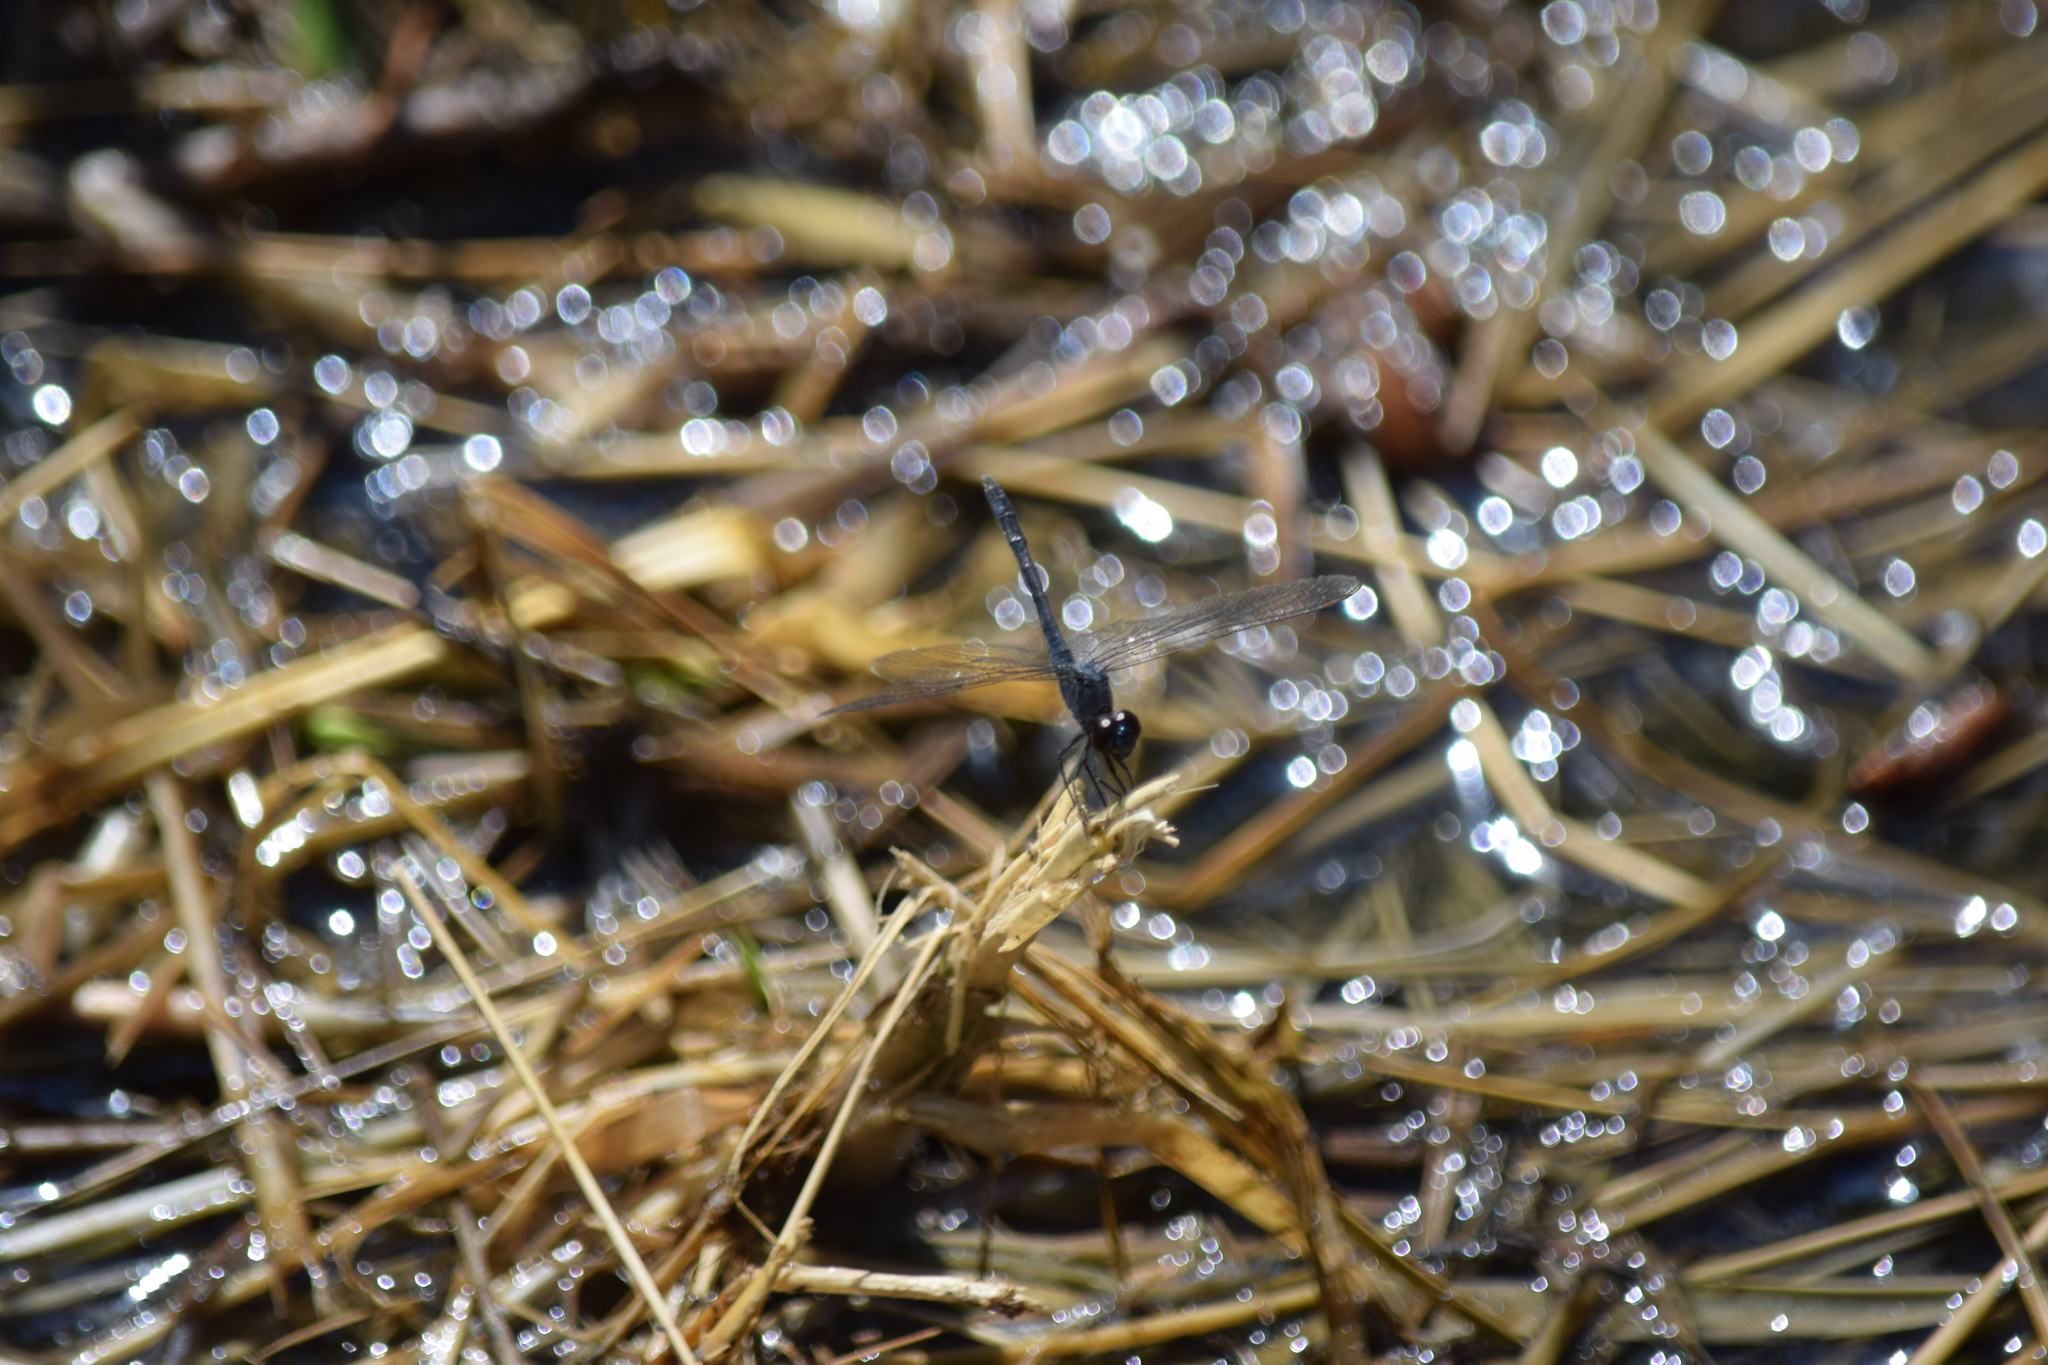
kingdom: Animalia
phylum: Arthropoda
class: Insecta
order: Odonata
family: Libellulidae
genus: Erythrodiplax
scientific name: Erythrodiplax berenice
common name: Seaside dragonlet
